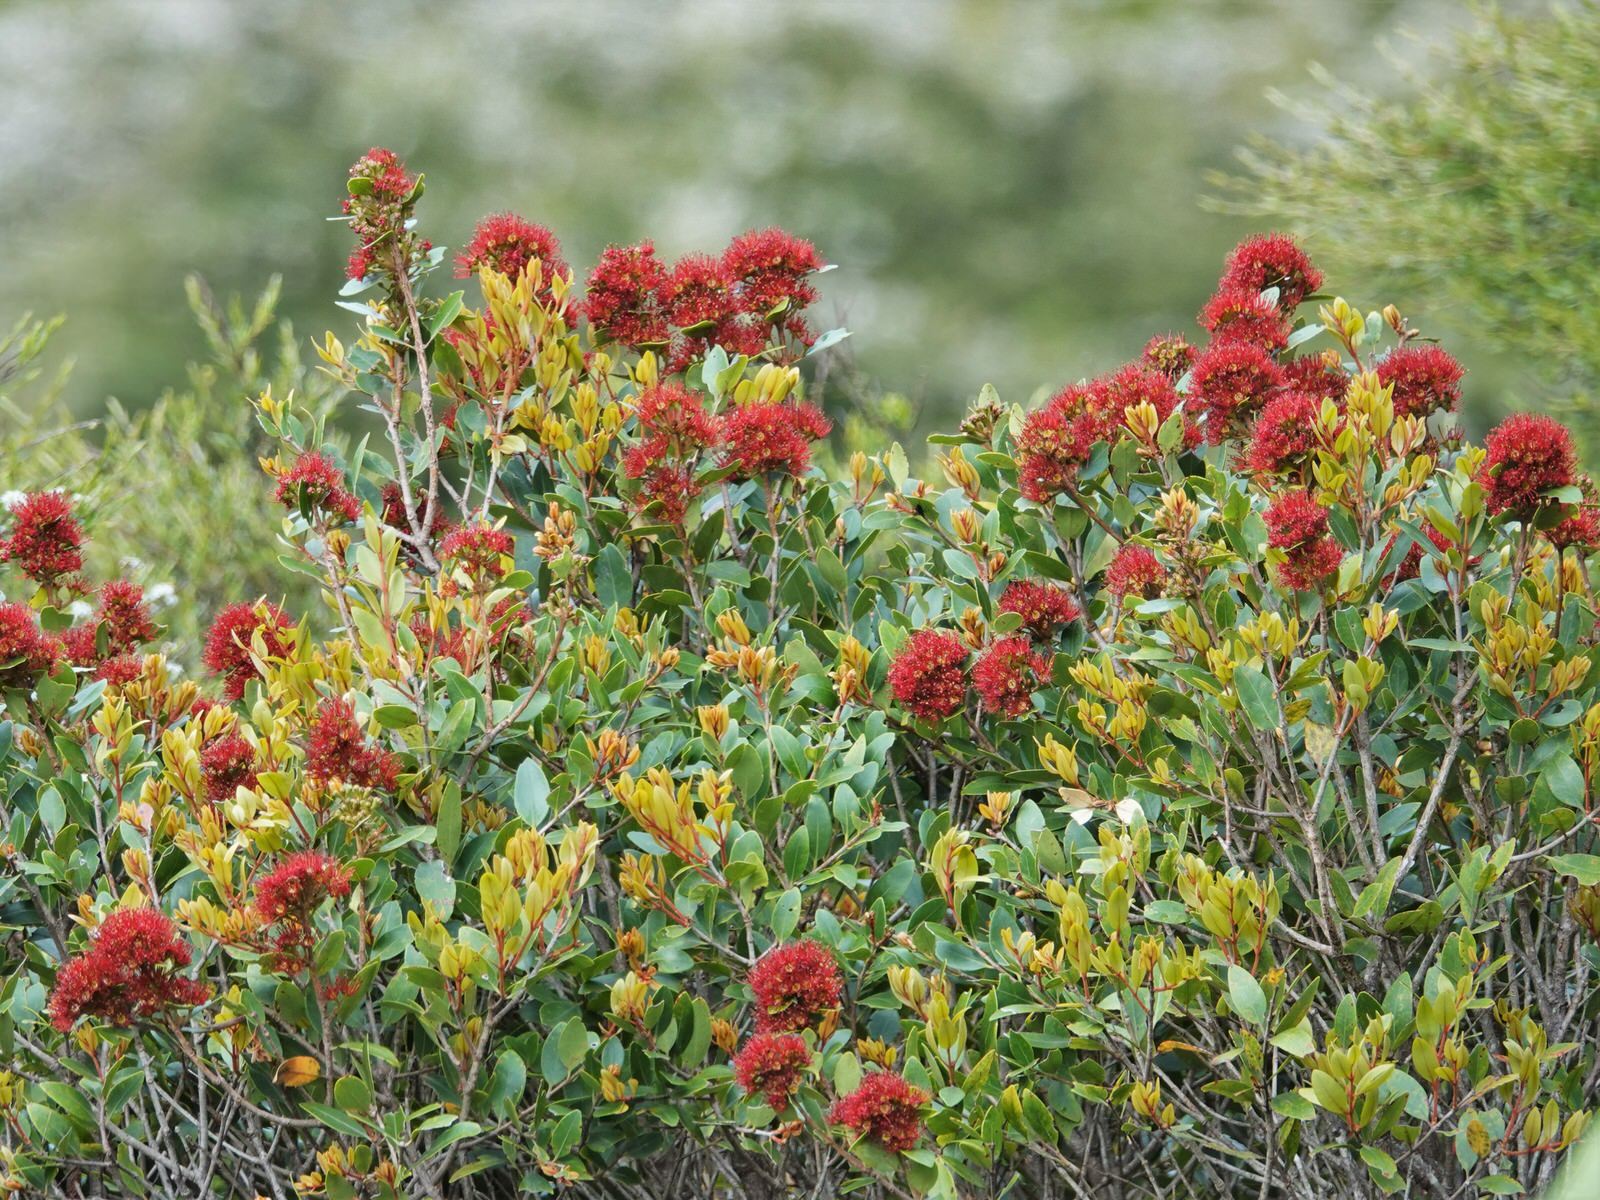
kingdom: Plantae
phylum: Tracheophyta
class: Magnoliopsida
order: Myrtales
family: Myrtaceae
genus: Metrosideros
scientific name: Metrosideros robusta
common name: Northern rata
